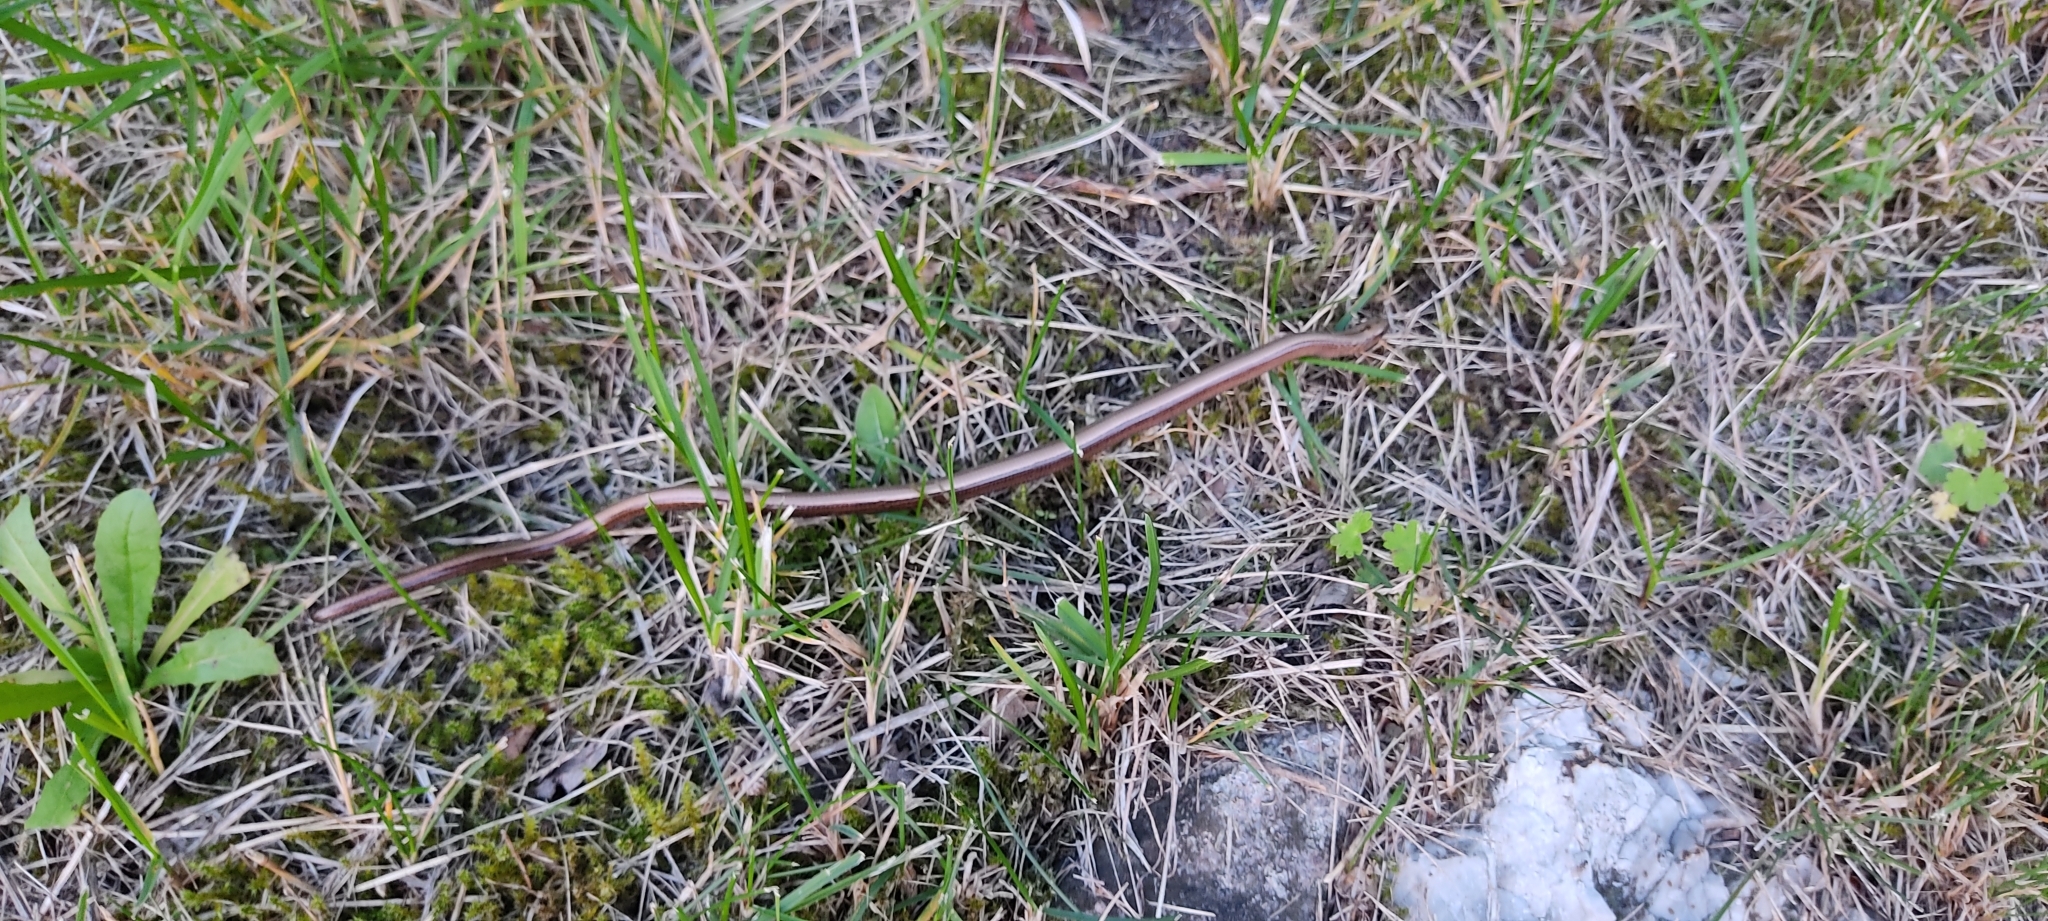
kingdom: Animalia
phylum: Chordata
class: Squamata
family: Anguidae
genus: Anguis
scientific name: Anguis fragilis
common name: Slow worm
